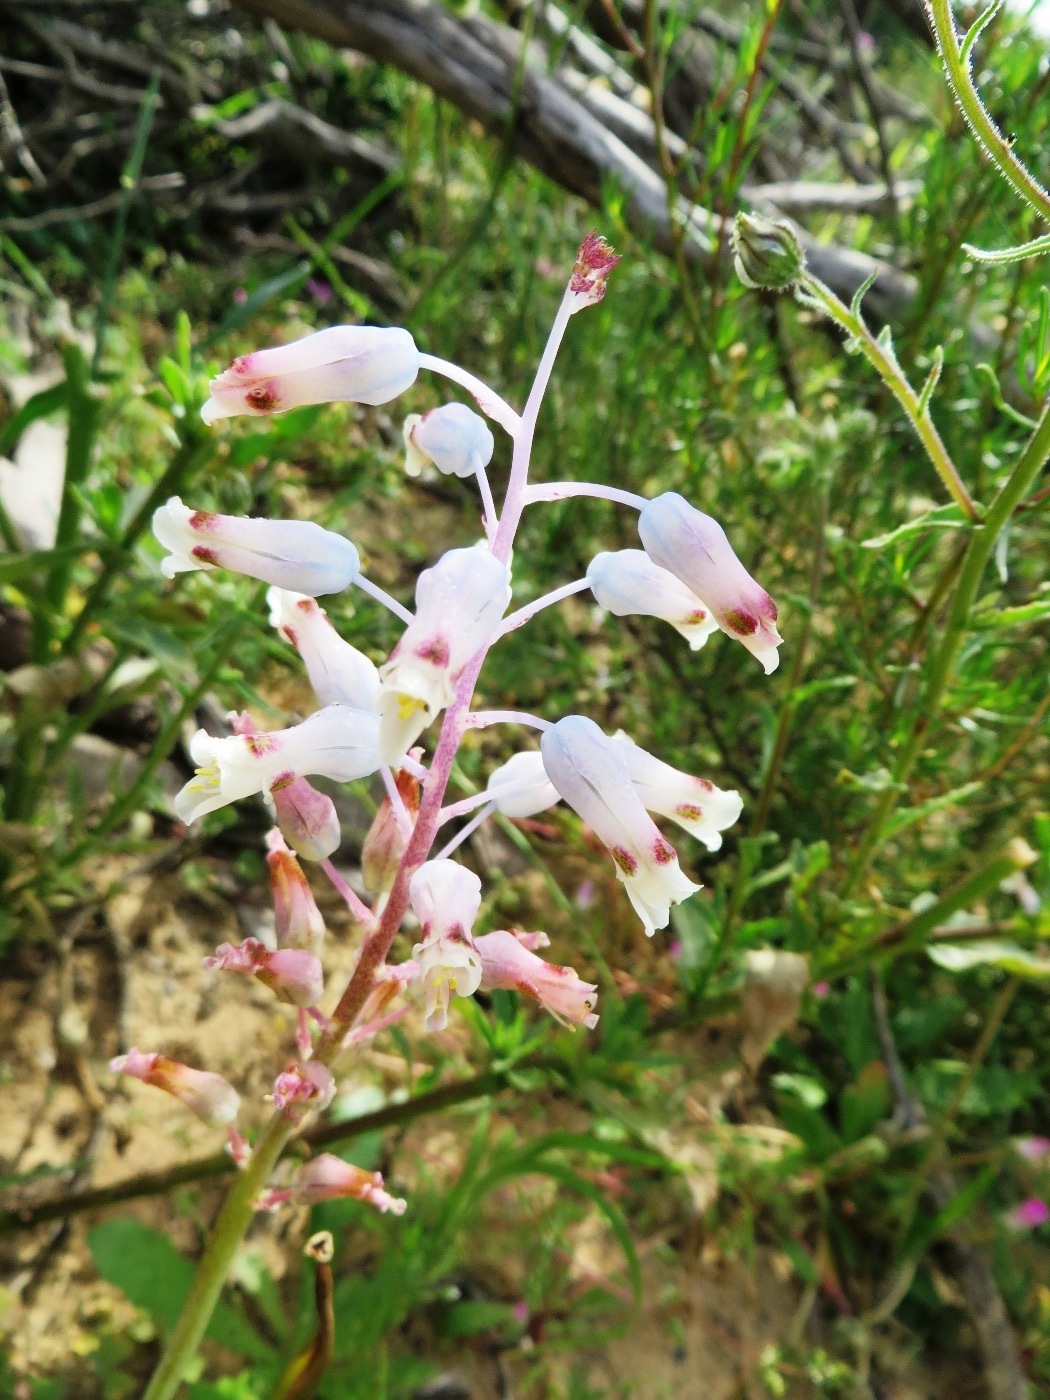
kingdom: Plantae
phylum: Tracheophyta
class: Liliopsida
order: Asparagales
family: Asparagaceae
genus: Lachenalia
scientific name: Lachenalia unifolia
